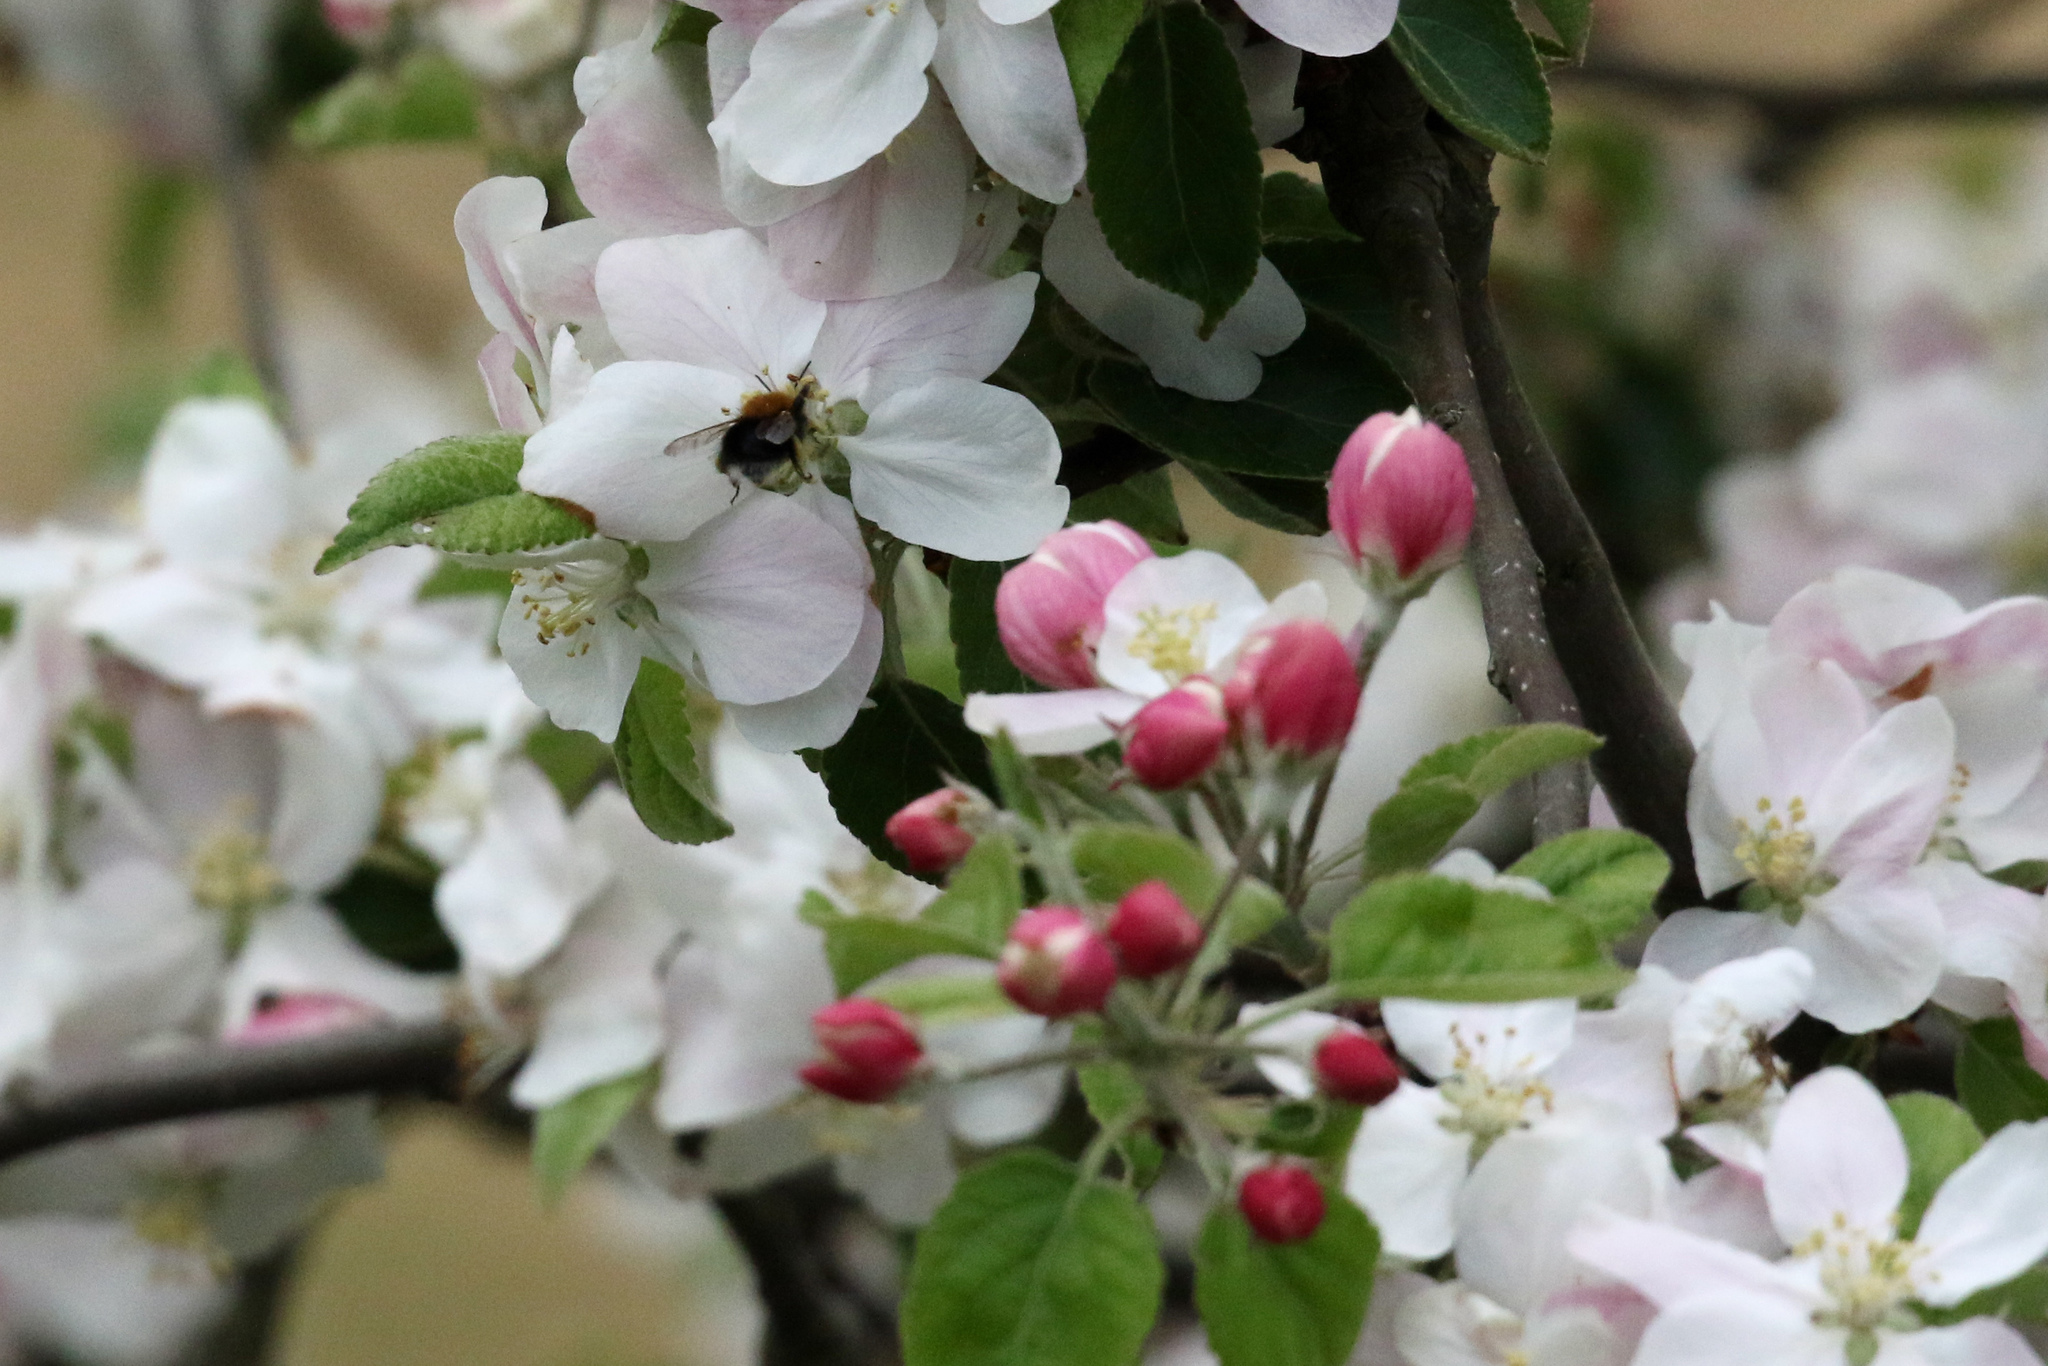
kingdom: Animalia
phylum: Arthropoda
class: Insecta
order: Hymenoptera
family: Apidae
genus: Bombus
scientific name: Bombus hypnorum
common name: New garden bumblebee
